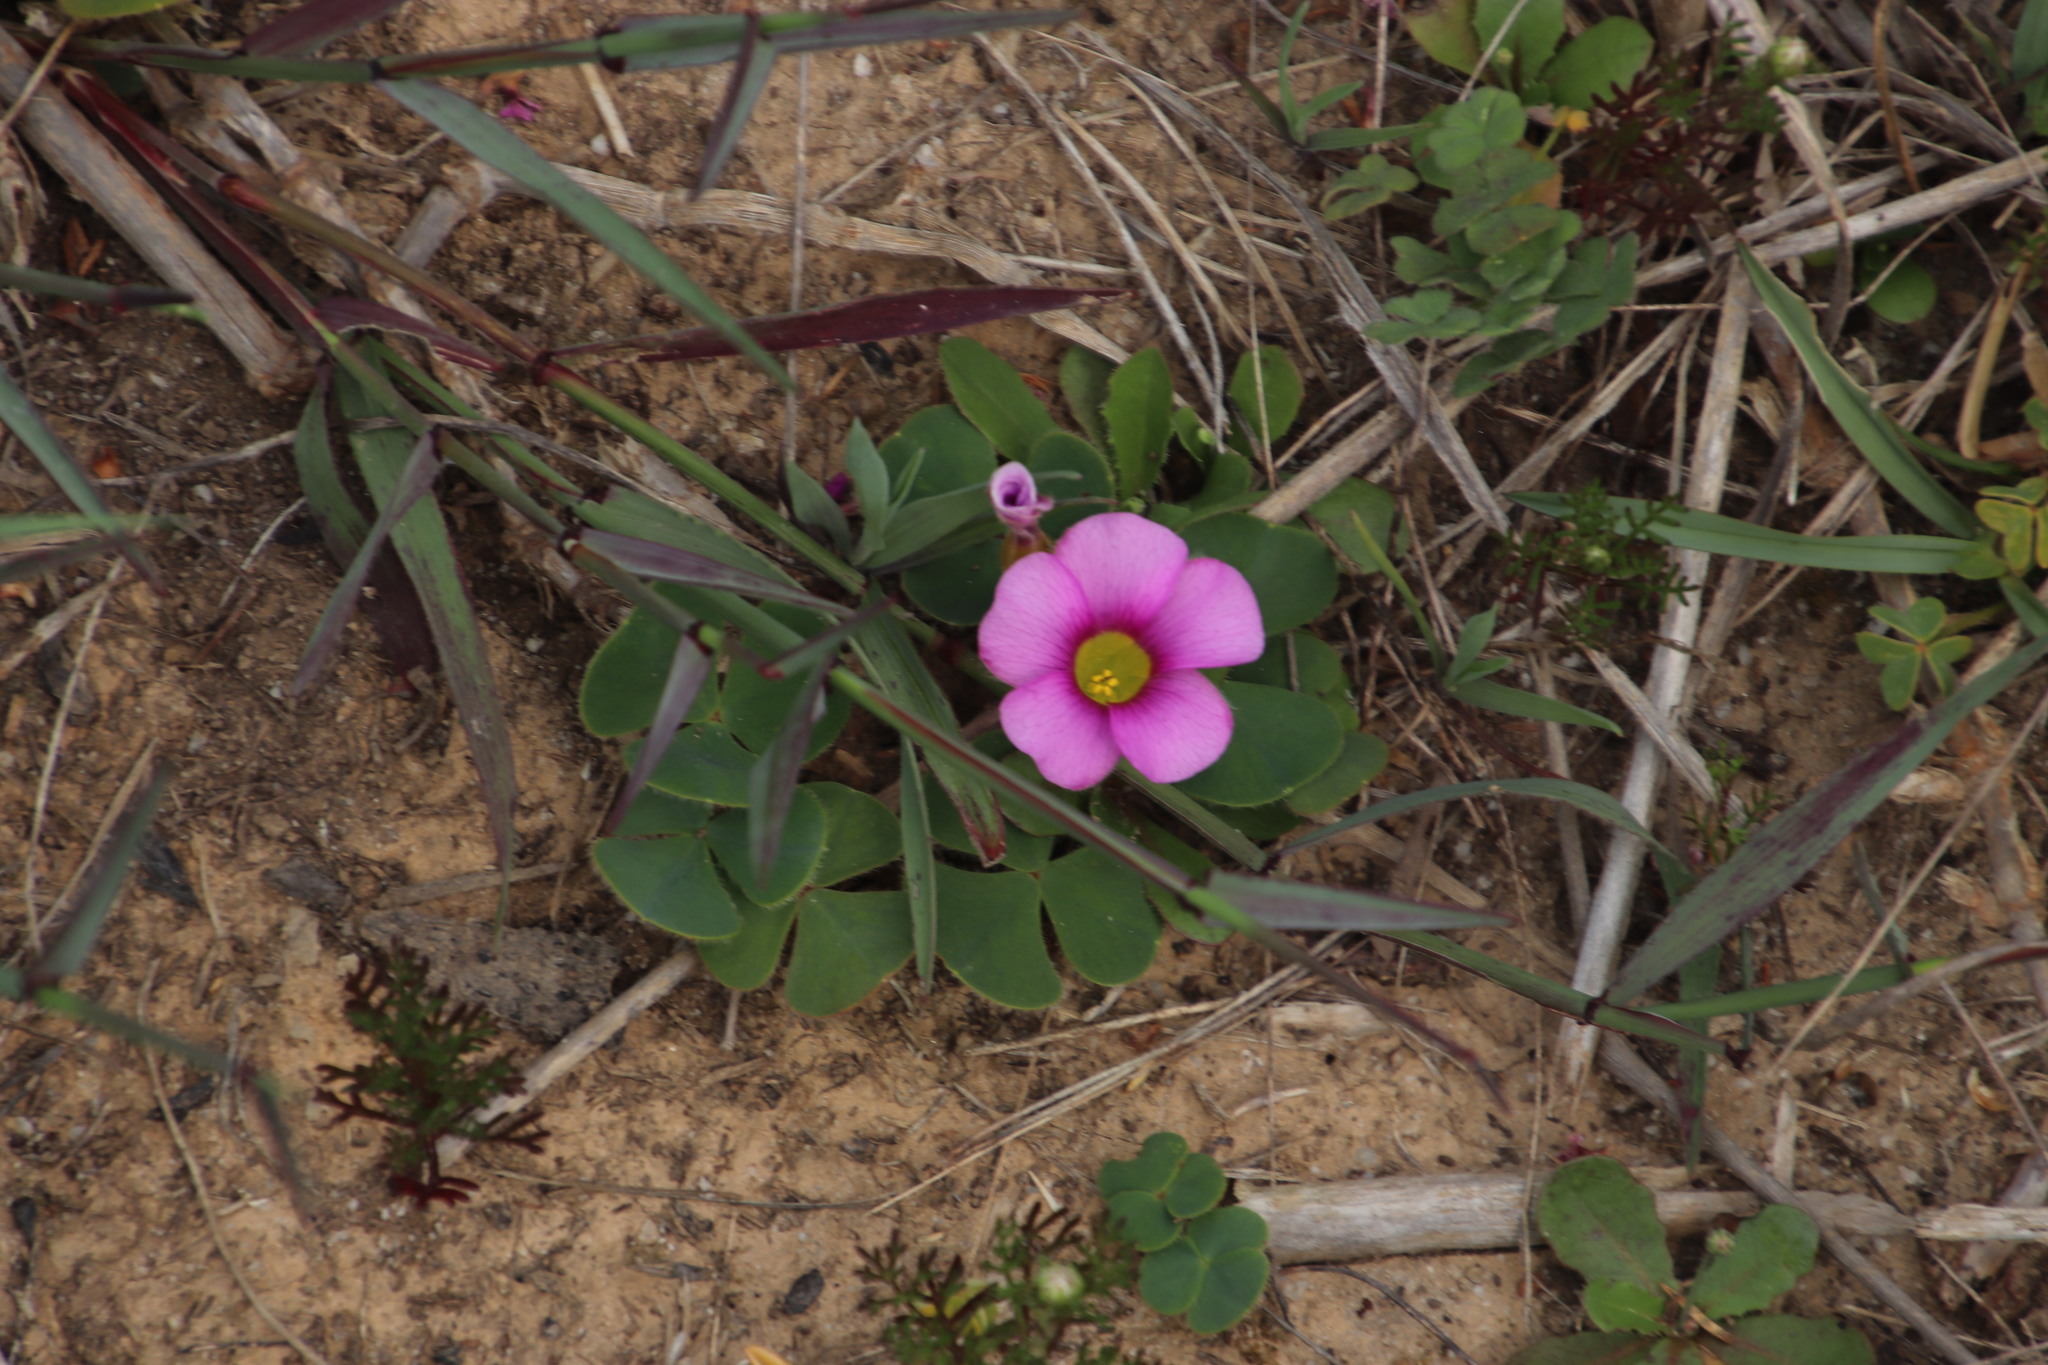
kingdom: Plantae
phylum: Tracheophyta
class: Magnoliopsida
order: Oxalidales
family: Oxalidaceae
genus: Oxalis
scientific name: Oxalis purpurea
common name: Purple woodsorrel
